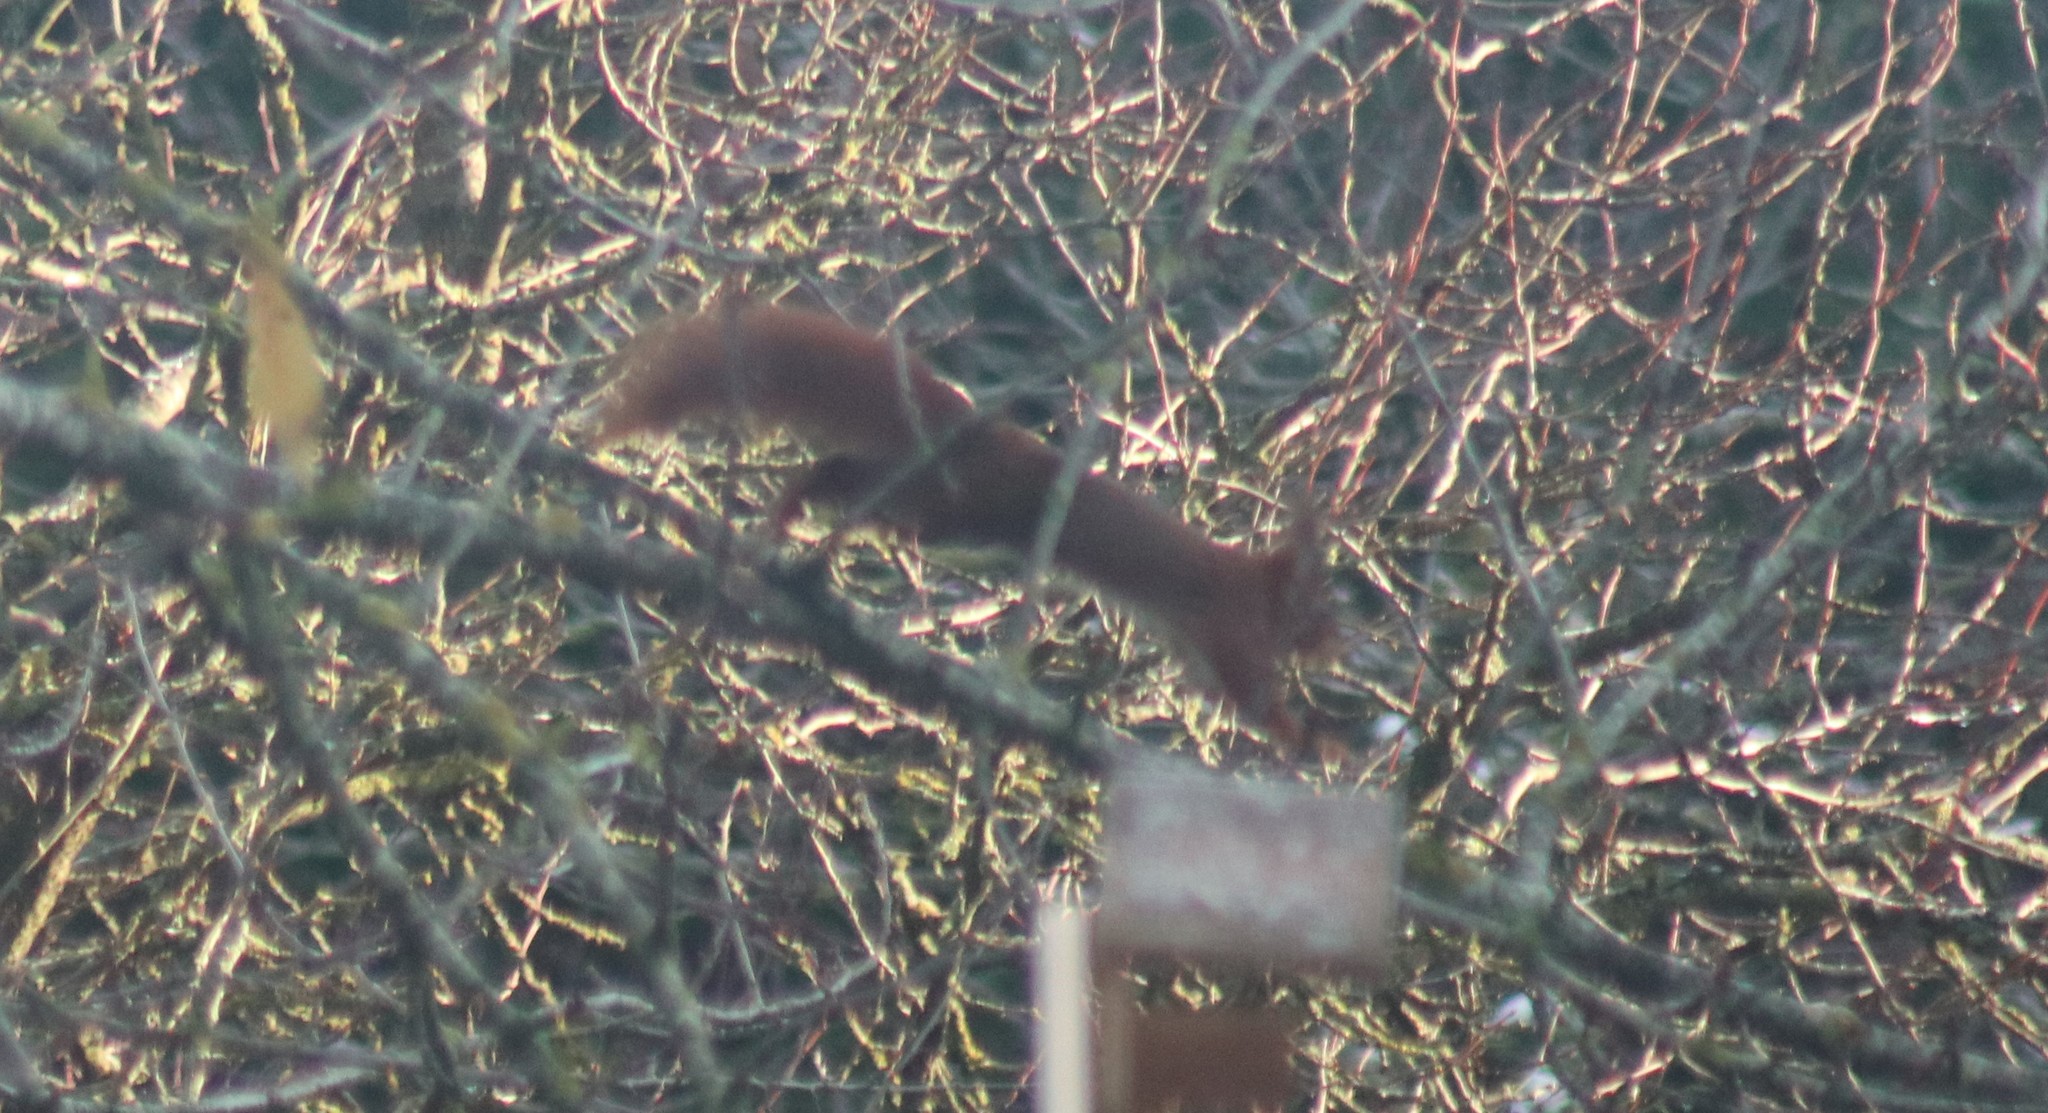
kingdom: Animalia
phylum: Chordata
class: Mammalia
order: Rodentia
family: Sciuridae
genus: Sciurus
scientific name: Sciurus vulgaris
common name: Eurasian red squirrel
